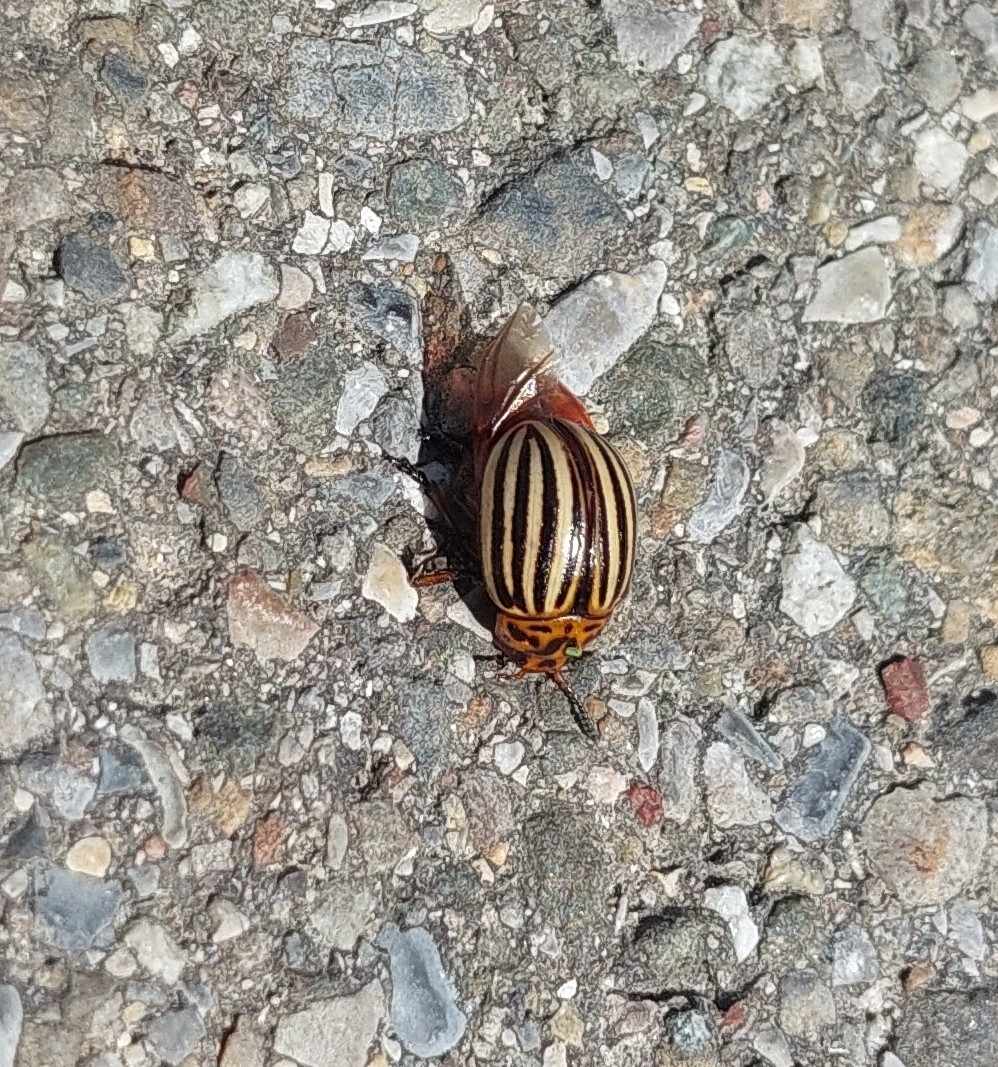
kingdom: Animalia
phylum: Arthropoda
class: Insecta
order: Coleoptera
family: Chrysomelidae
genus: Leptinotarsa
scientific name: Leptinotarsa decemlineata
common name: Colorado potato beetle
